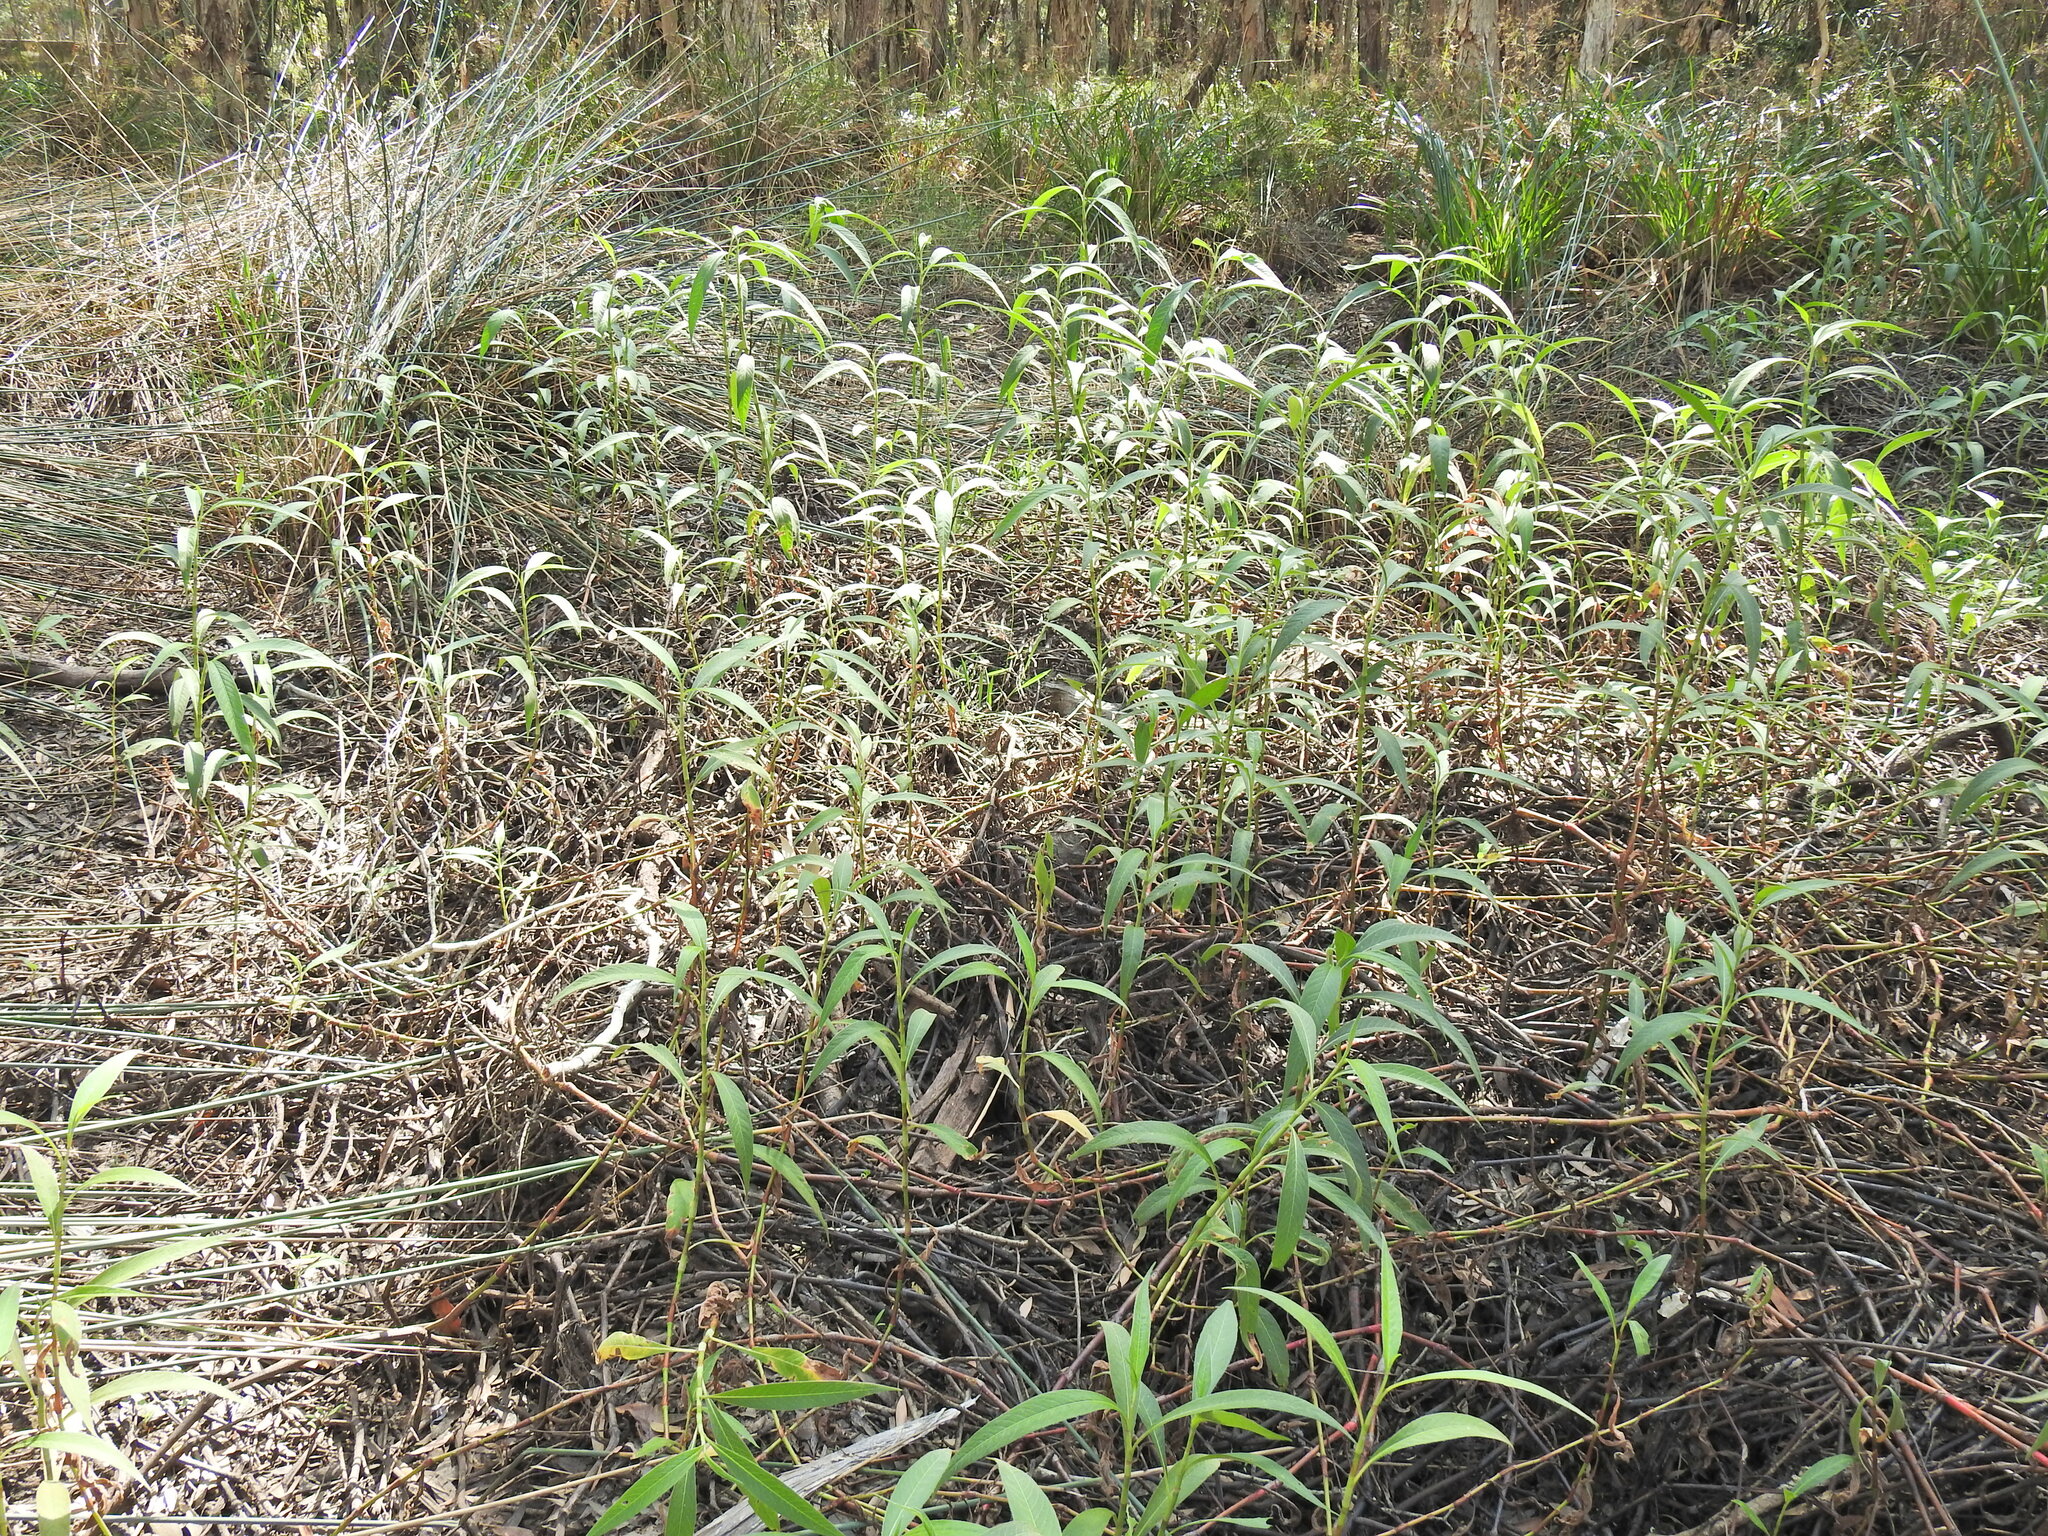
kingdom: Plantae
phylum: Tracheophyta
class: Magnoliopsida
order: Caryophyllales
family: Polygonaceae
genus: Persicaria
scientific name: Persicaria attenuata
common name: Hairy knotweed
